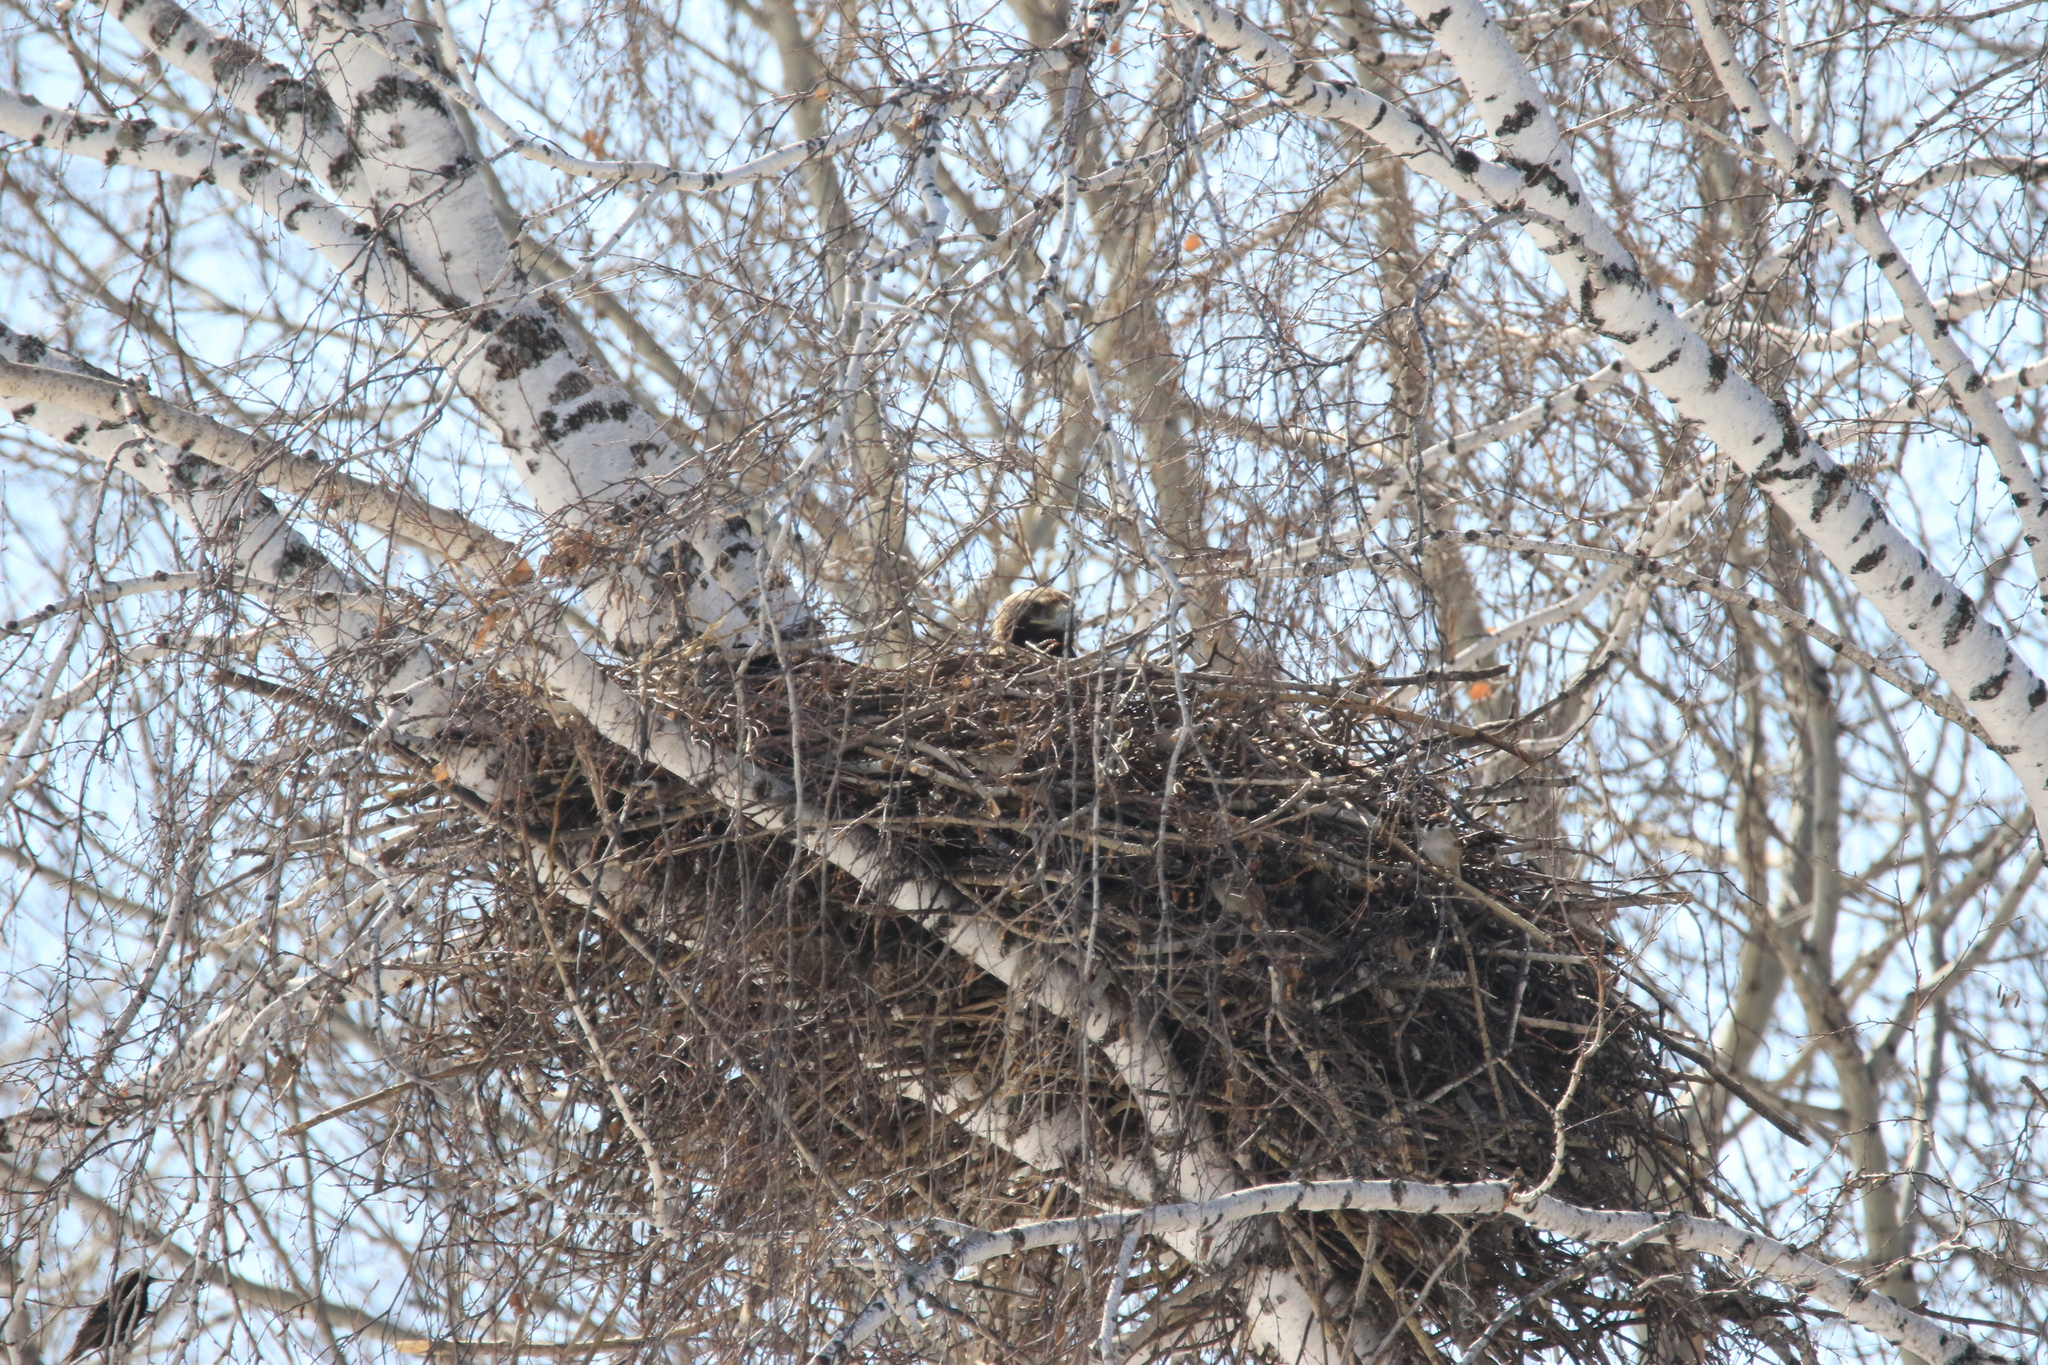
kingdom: Animalia
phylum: Chordata
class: Aves
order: Accipitriformes
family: Accipitridae
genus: Aquila
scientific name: Aquila heliaca
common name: Eastern imperial eagle
